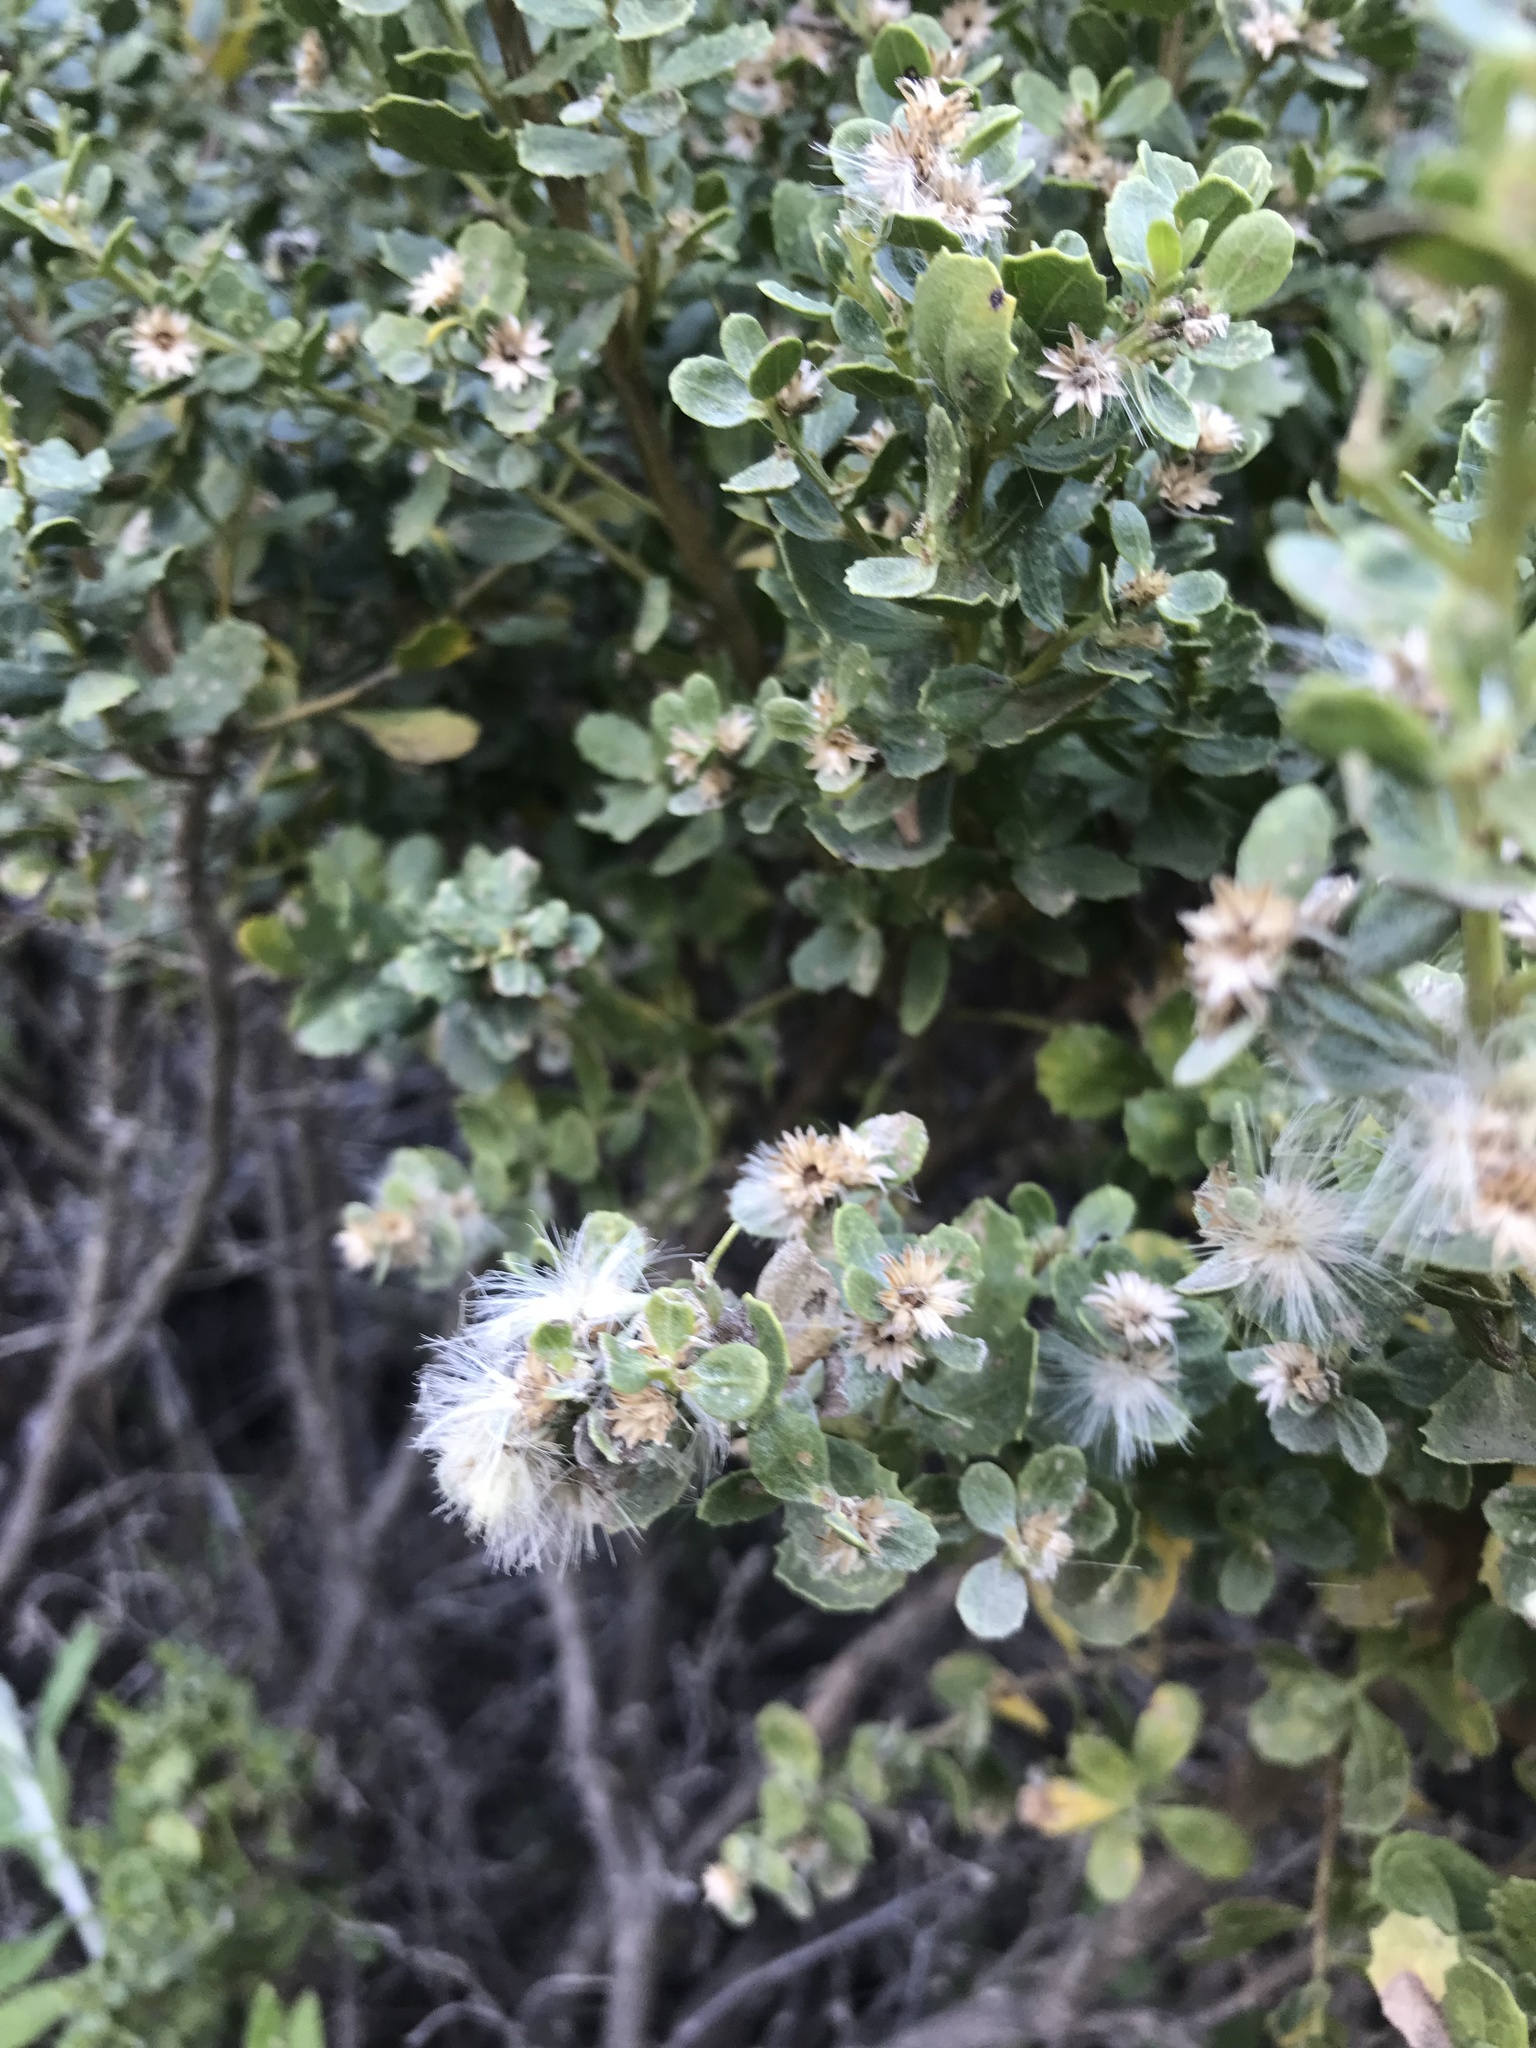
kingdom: Plantae
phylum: Tracheophyta
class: Magnoliopsida
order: Asterales
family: Asteraceae
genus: Baccharis
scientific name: Baccharis pilularis
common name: Coyotebrush
